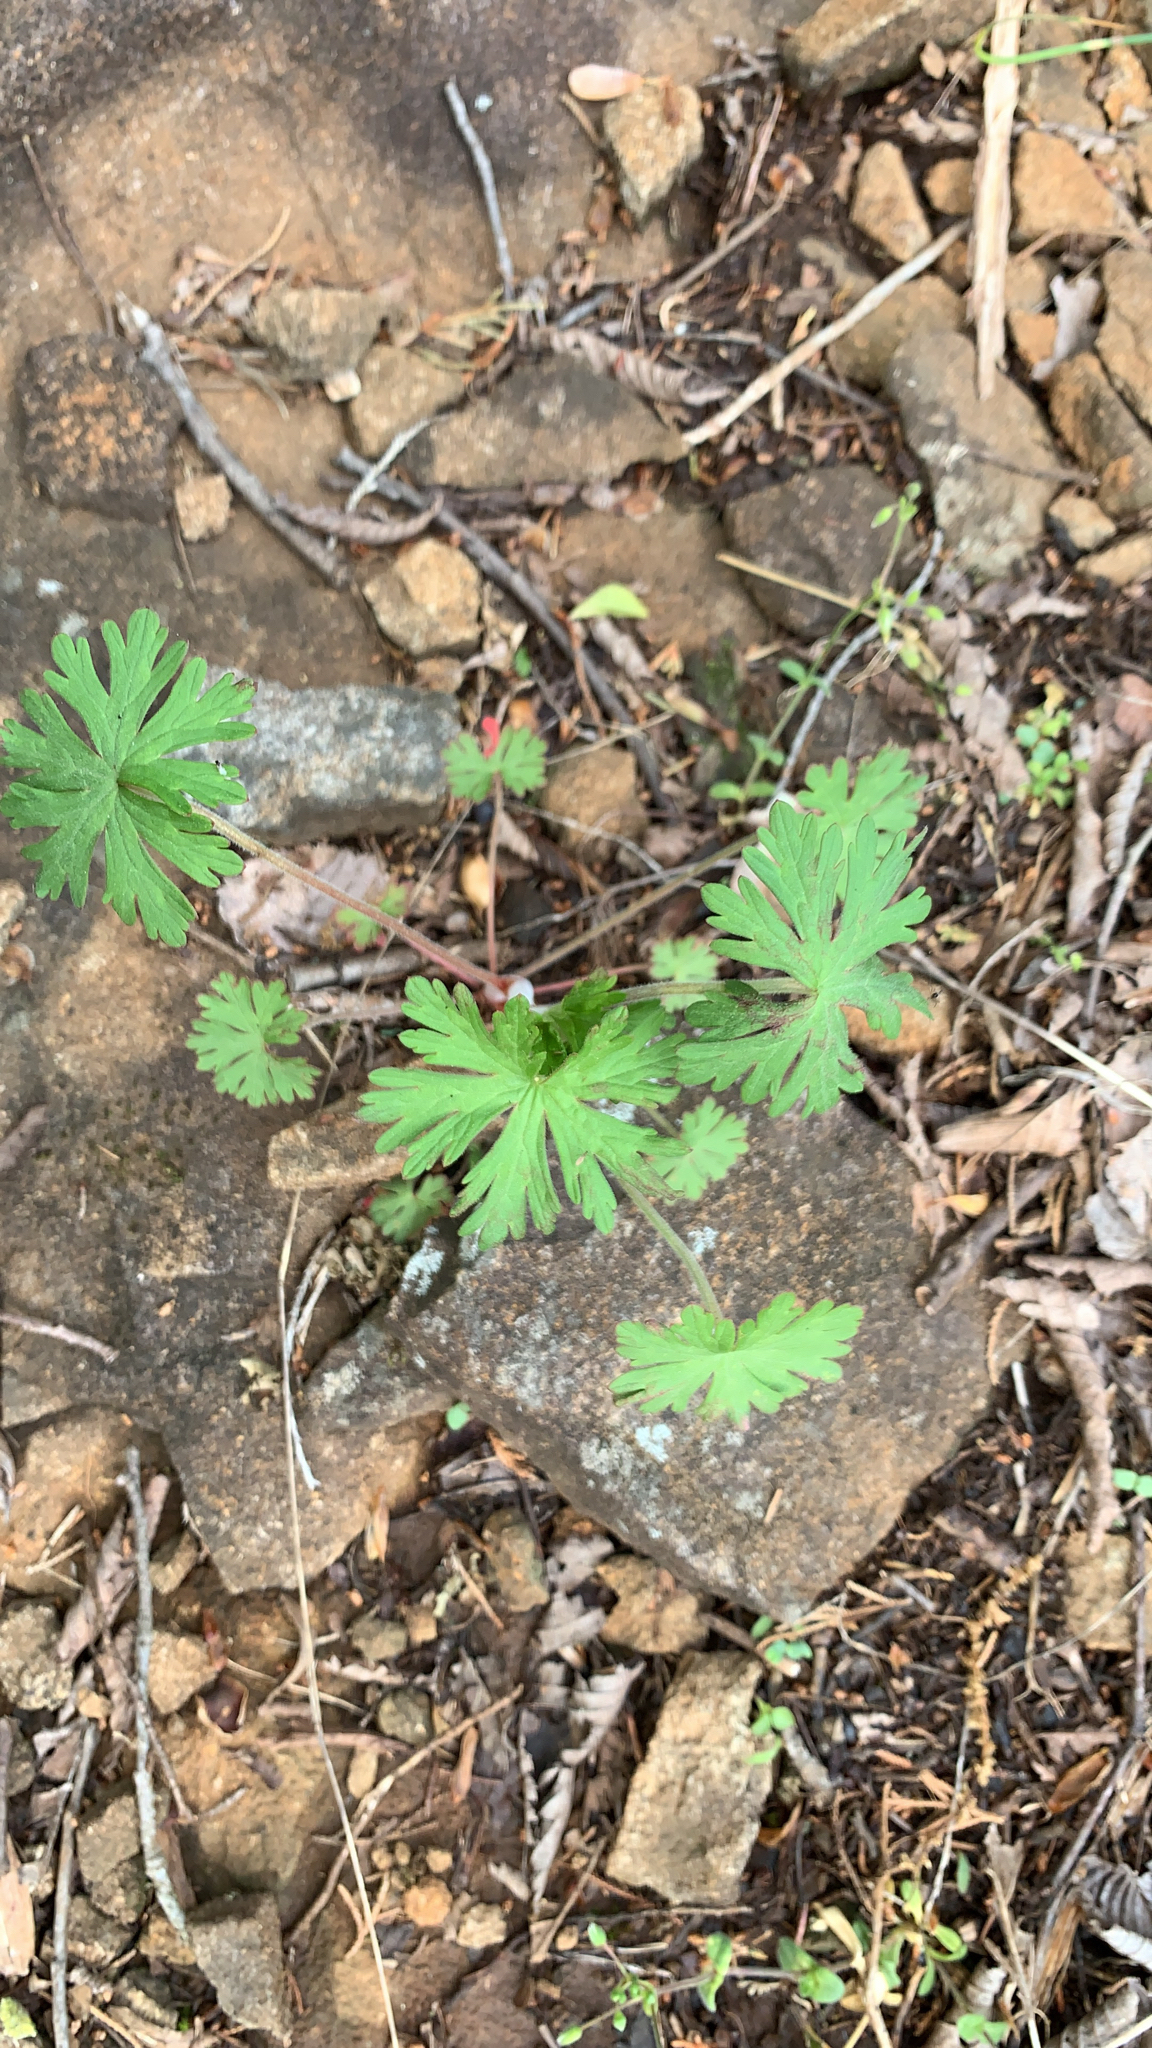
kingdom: Plantae
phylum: Tracheophyta
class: Magnoliopsida
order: Geraniales
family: Geraniaceae
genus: Geranium
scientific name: Geranium carolinianum
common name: Carolina crane's-bill
